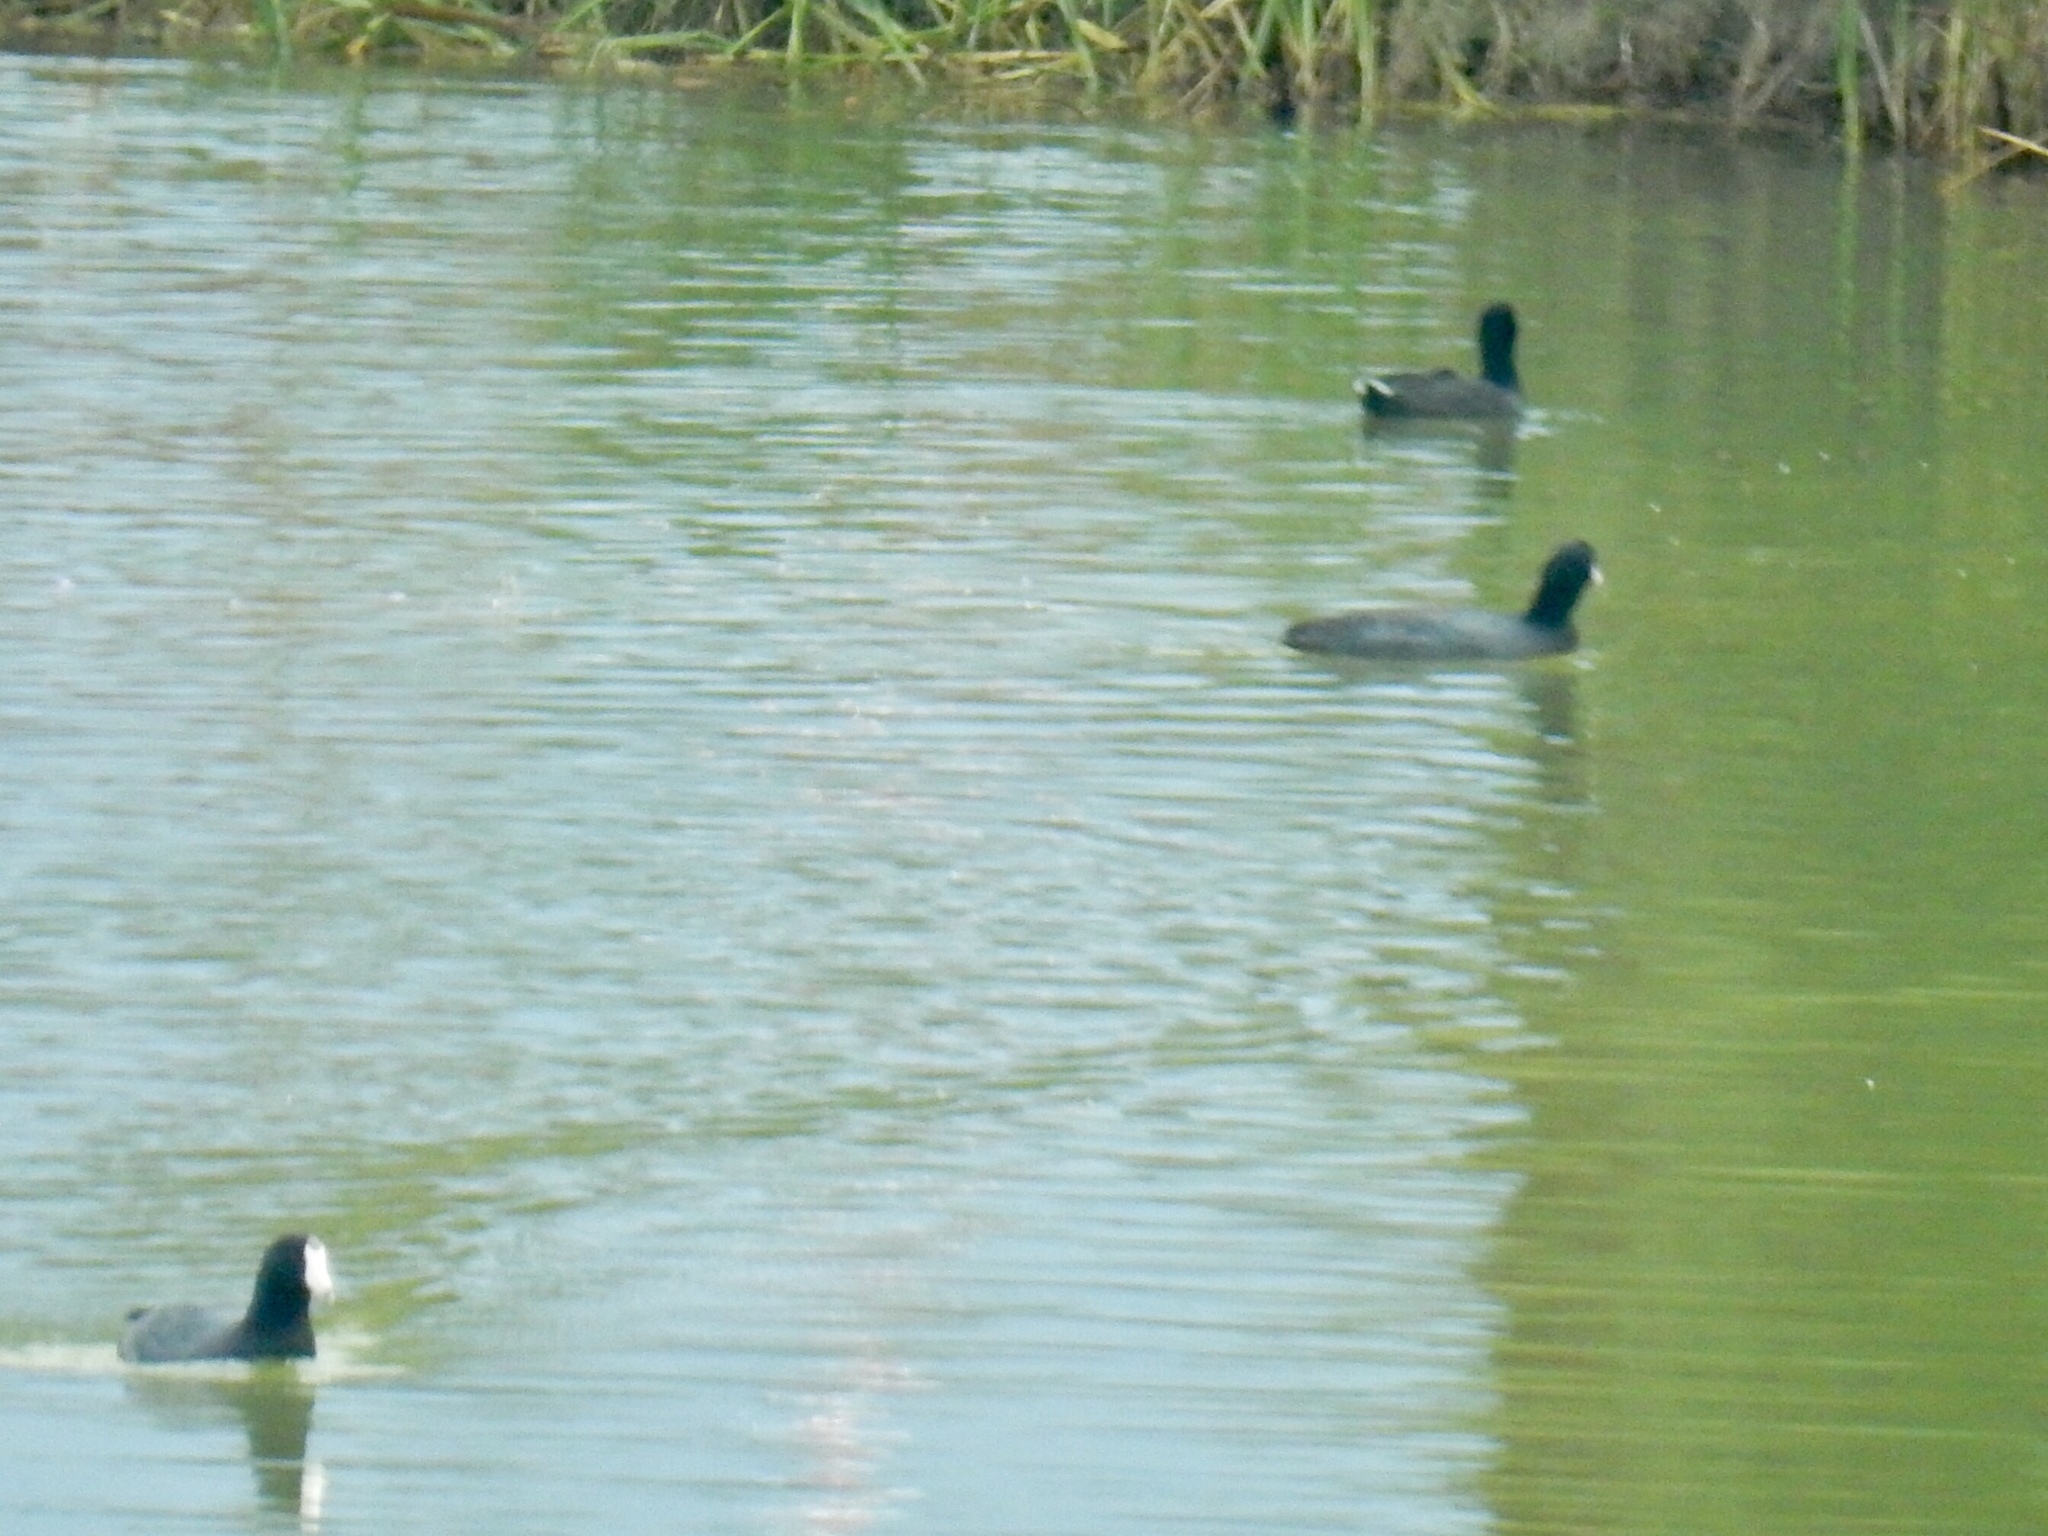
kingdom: Animalia
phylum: Chordata
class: Aves
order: Gruiformes
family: Rallidae
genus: Fulica
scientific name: Fulica americana
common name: American coot
